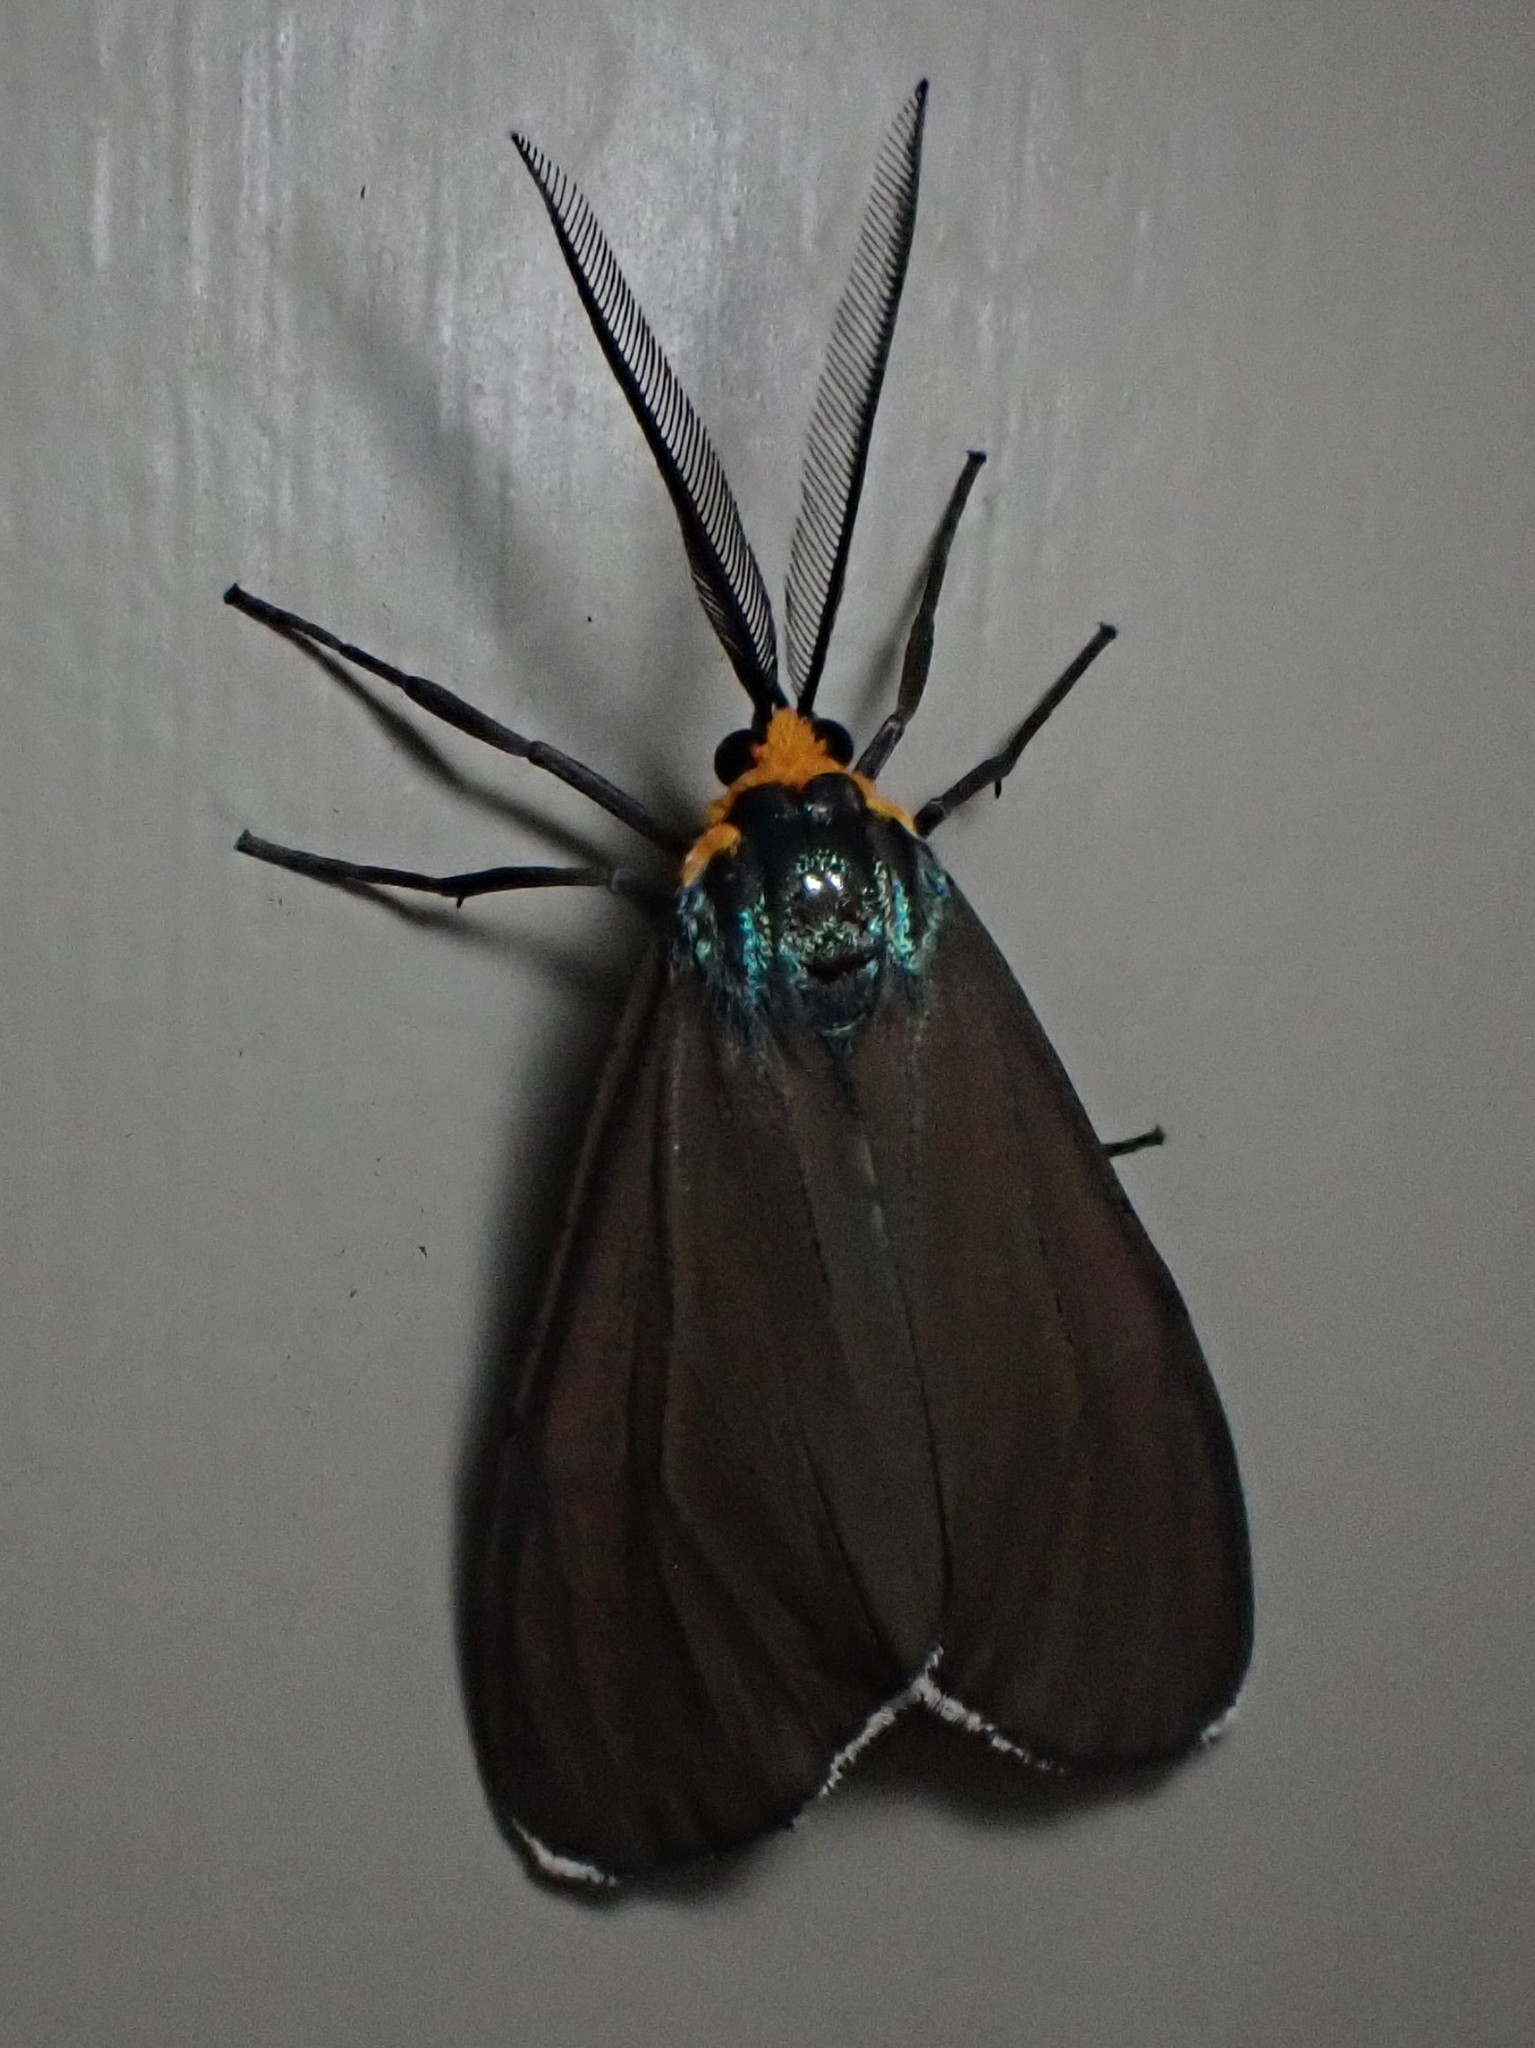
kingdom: Animalia
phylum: Arthropoda
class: Insecta
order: Lepidoptera
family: Erebidae
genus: Ctenucha
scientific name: Ctenucha virginica
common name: Virginia ctenucha moth
